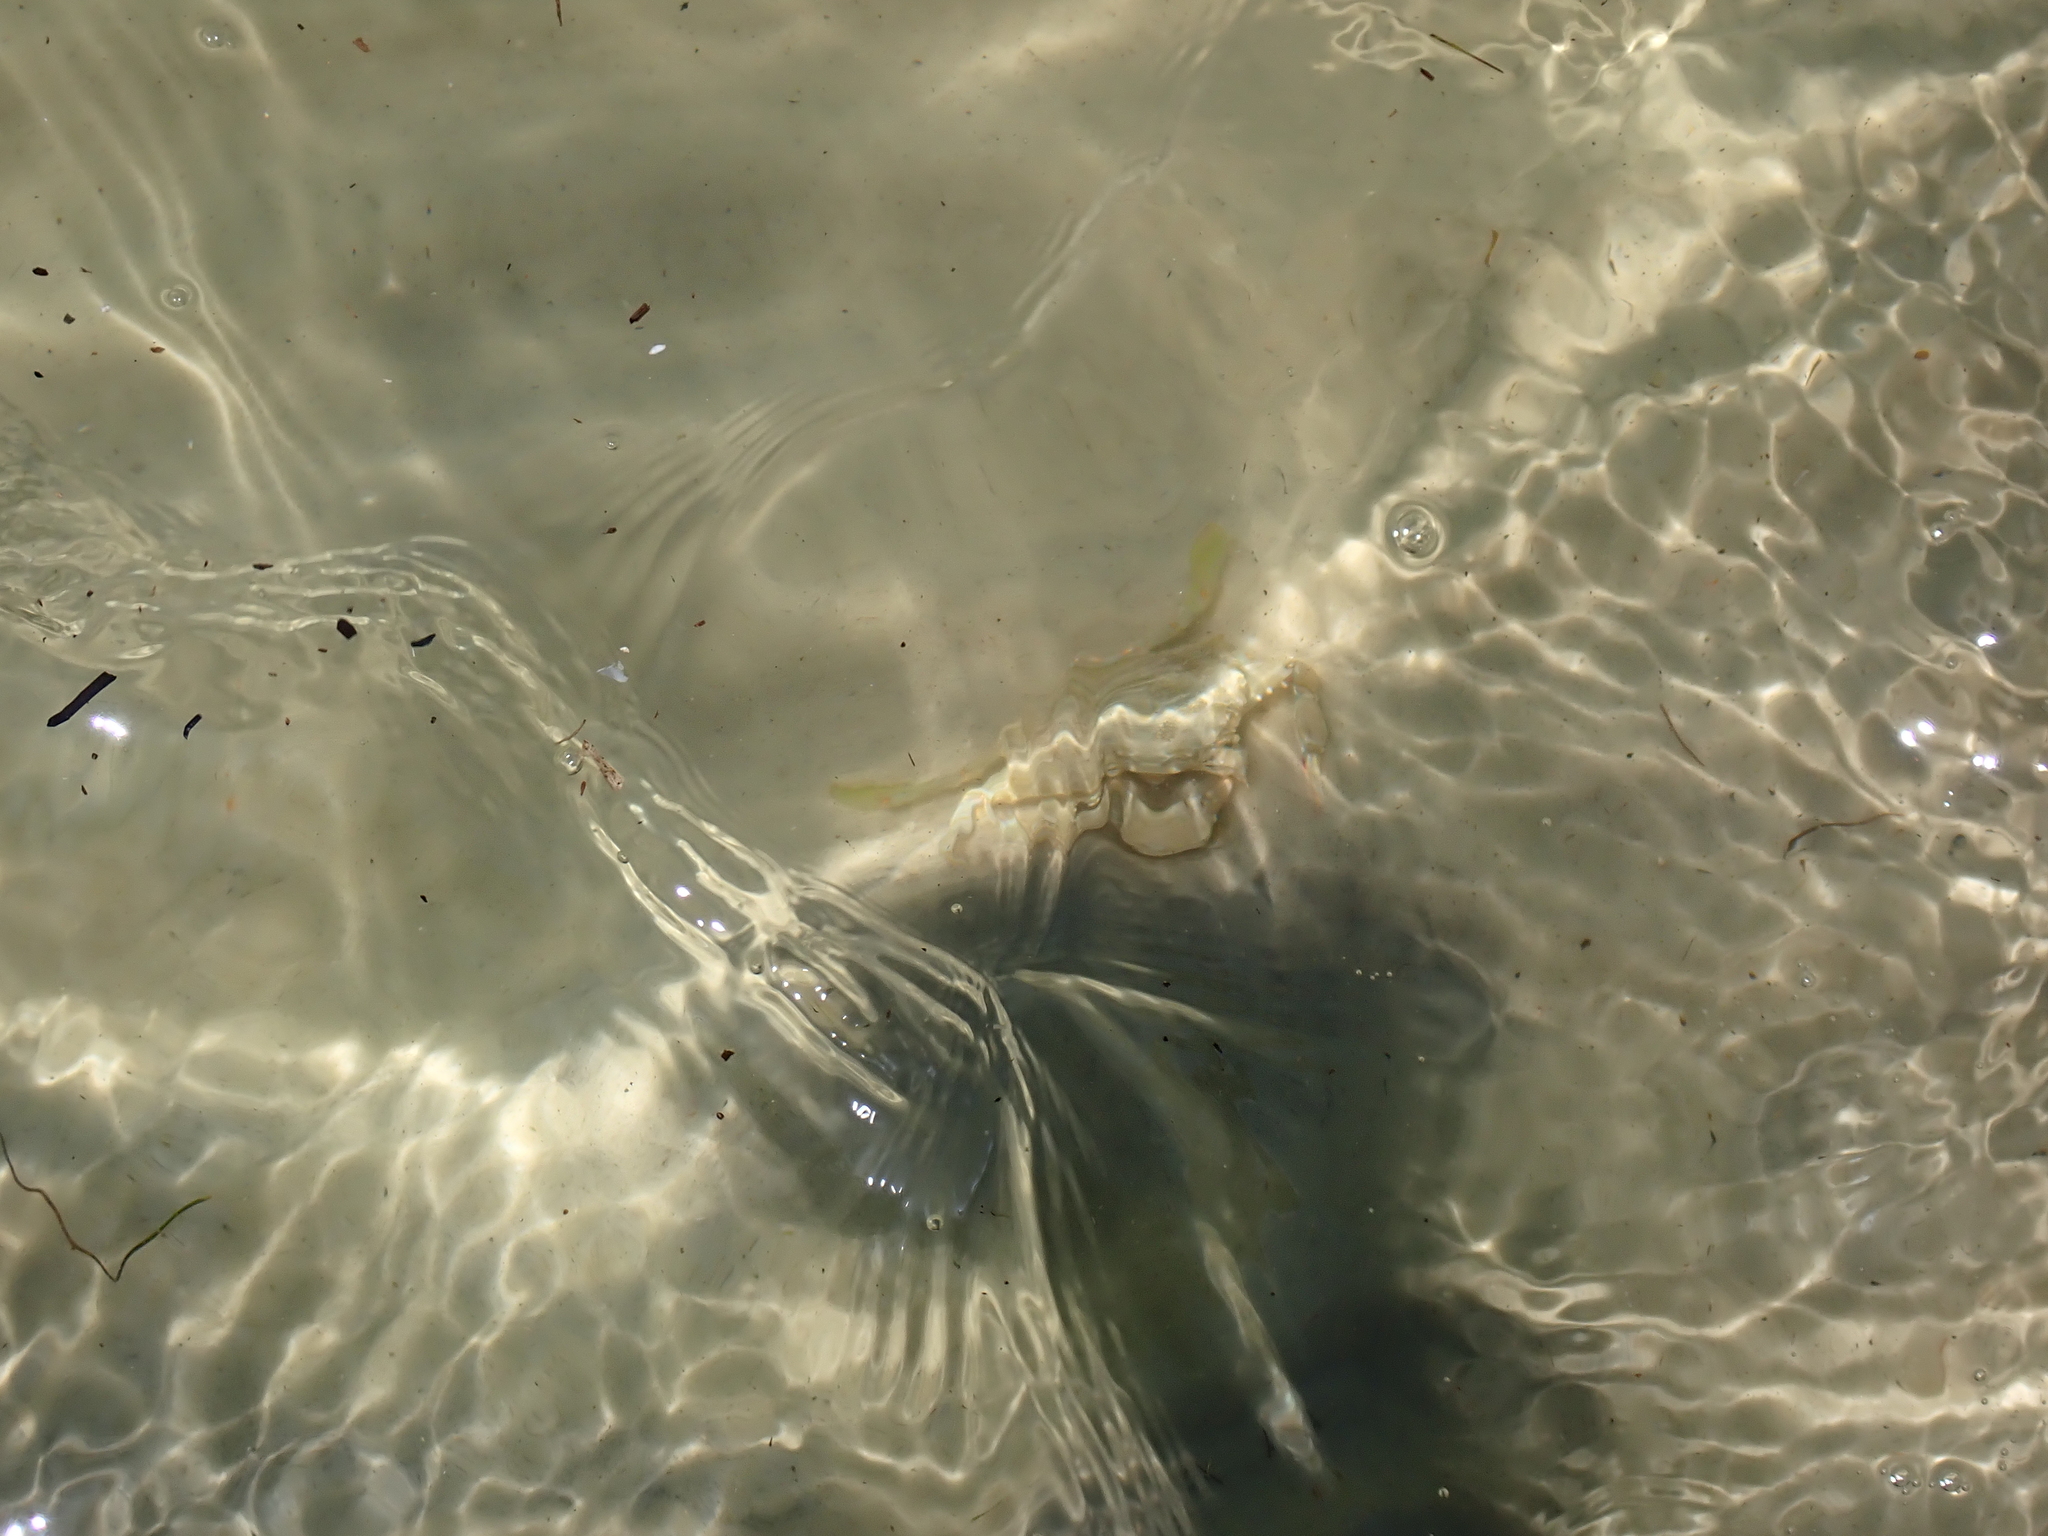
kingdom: Animalia
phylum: Arthropoda
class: Malacostraca
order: Decapoda
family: Portunidae
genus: Callinectes
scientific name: Callinectes sapidus
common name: Blue crab
